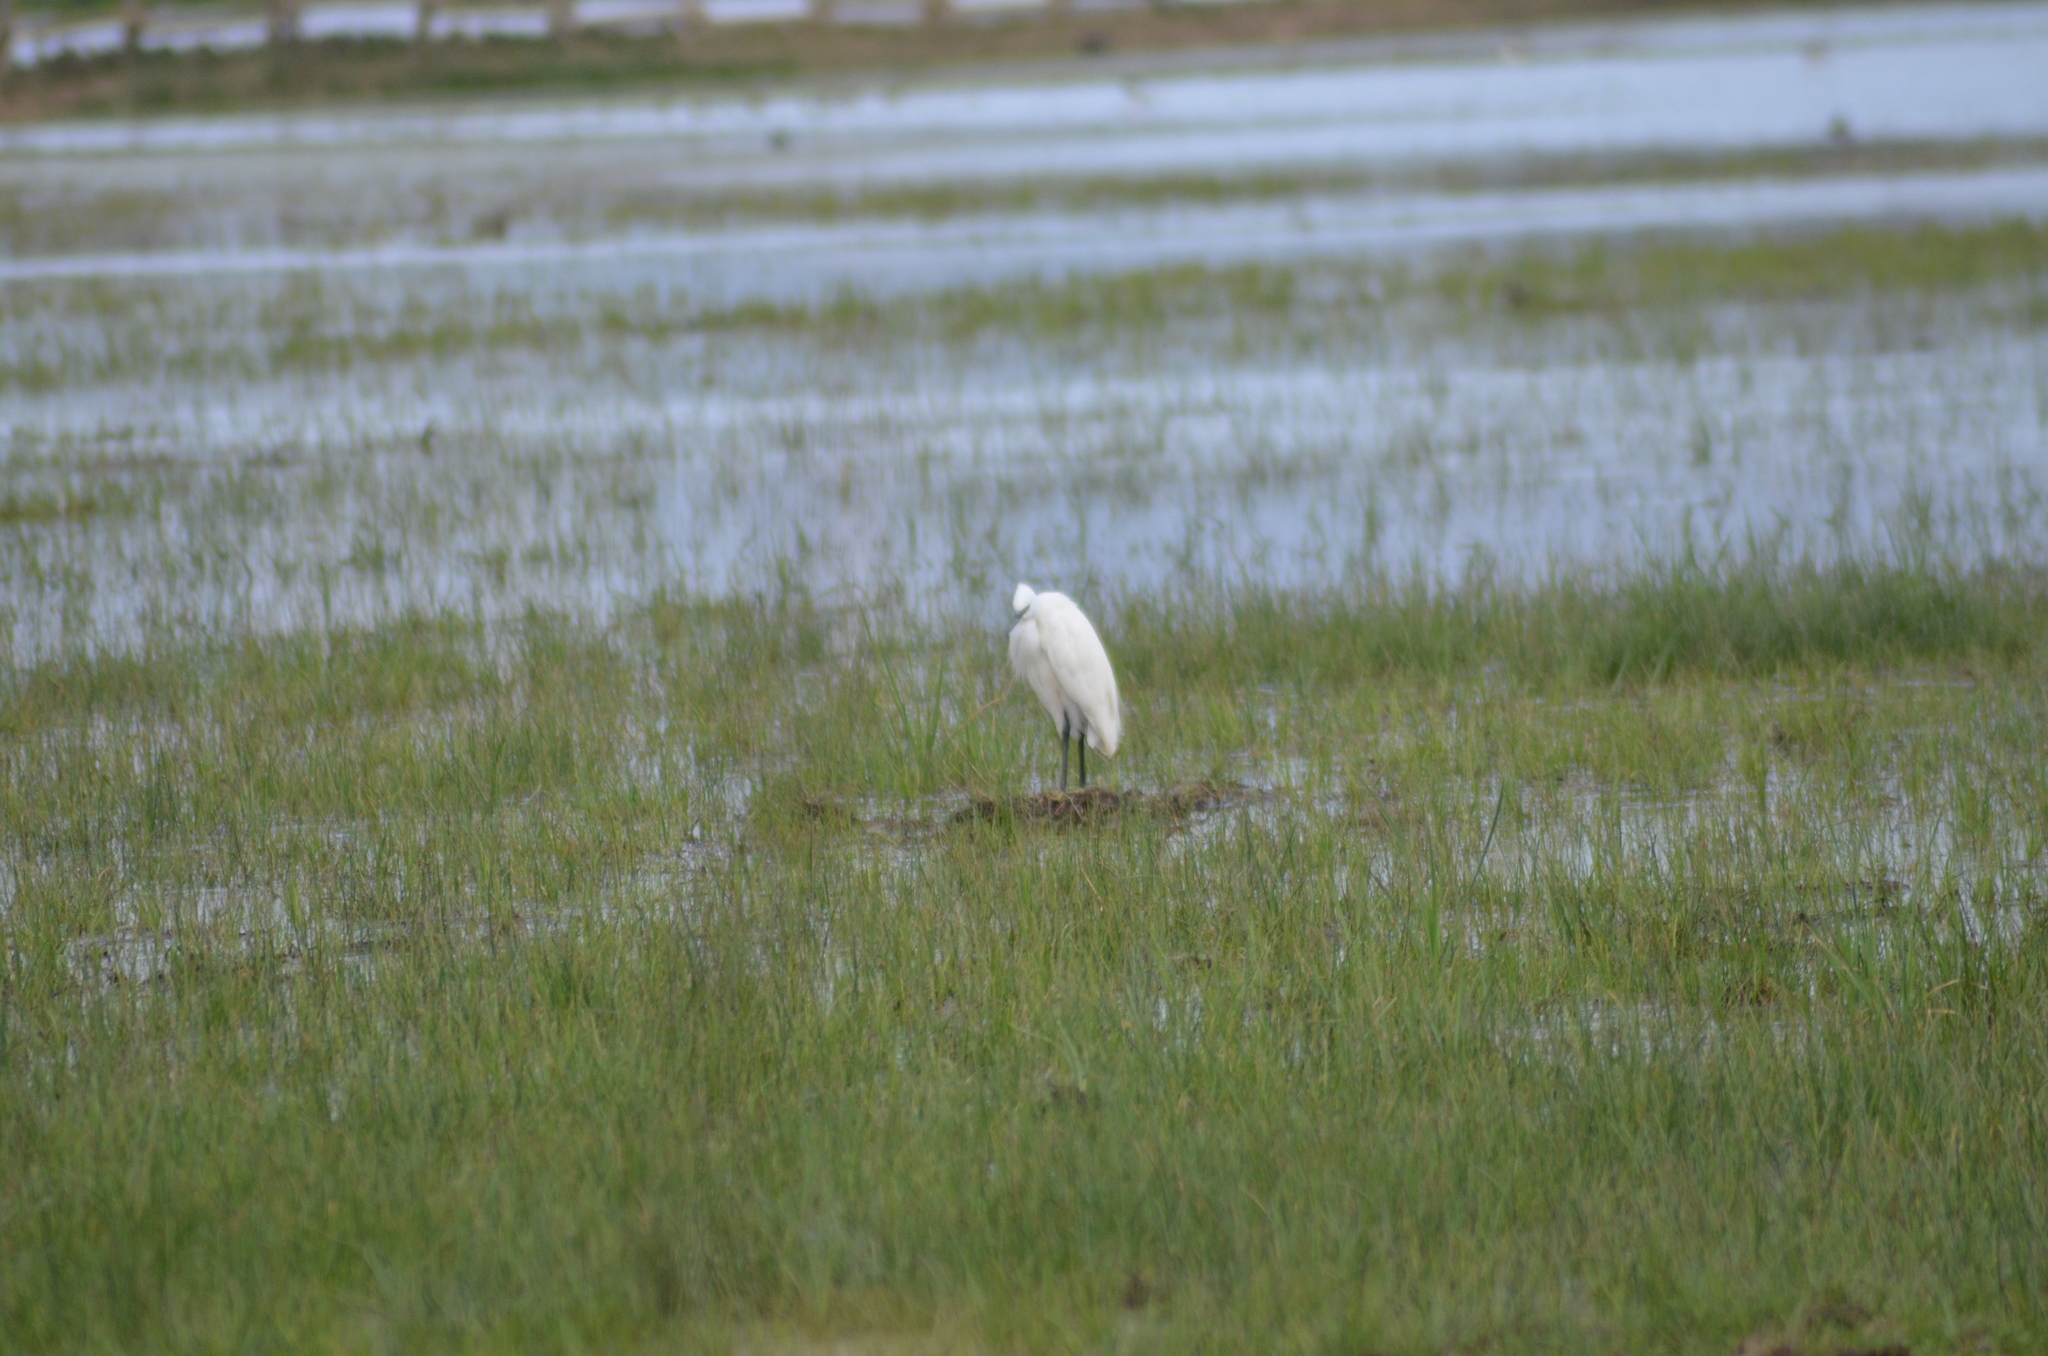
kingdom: Animalia
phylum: Chordata
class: Aves
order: Pelecaniformes
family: Ardeidae
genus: Egretta
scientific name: Egretta garzetta
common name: Little egret
